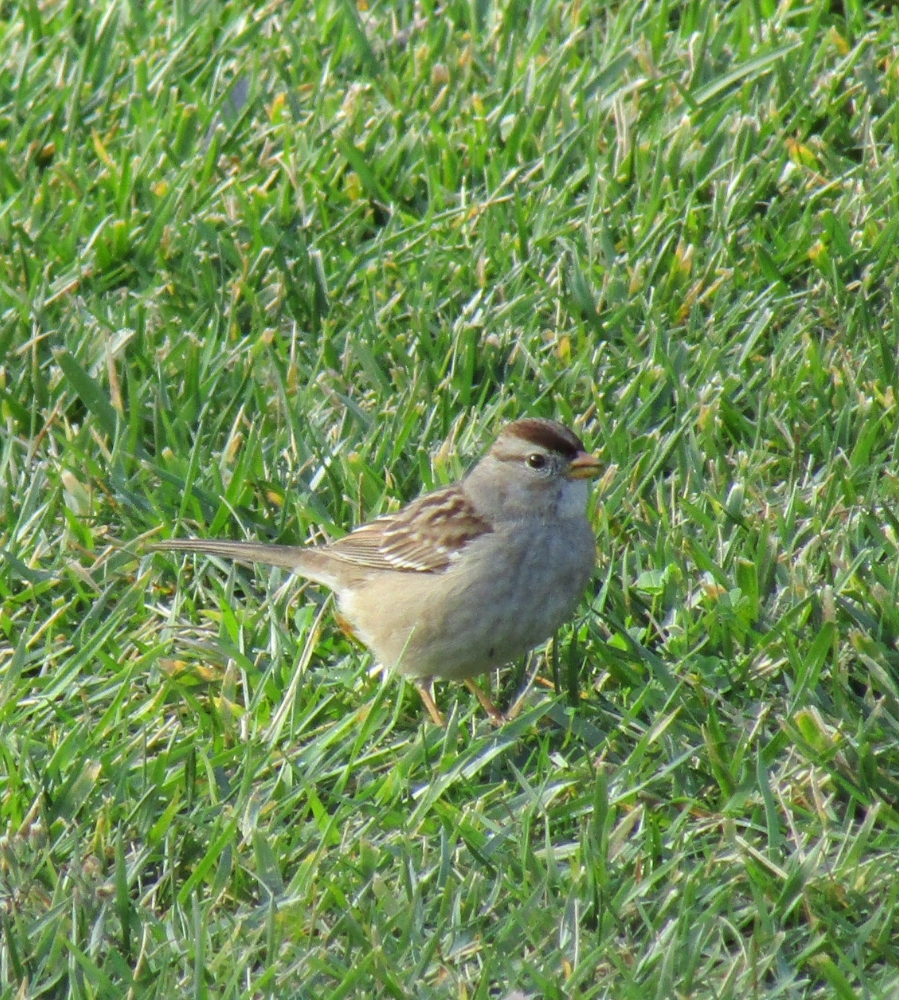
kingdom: Animalia
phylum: Chordata
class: Aves
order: Passeriformes
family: Passerellidae
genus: Zonotrichia
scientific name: Zonotrichia leucophrys
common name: White-crowned sparrow
